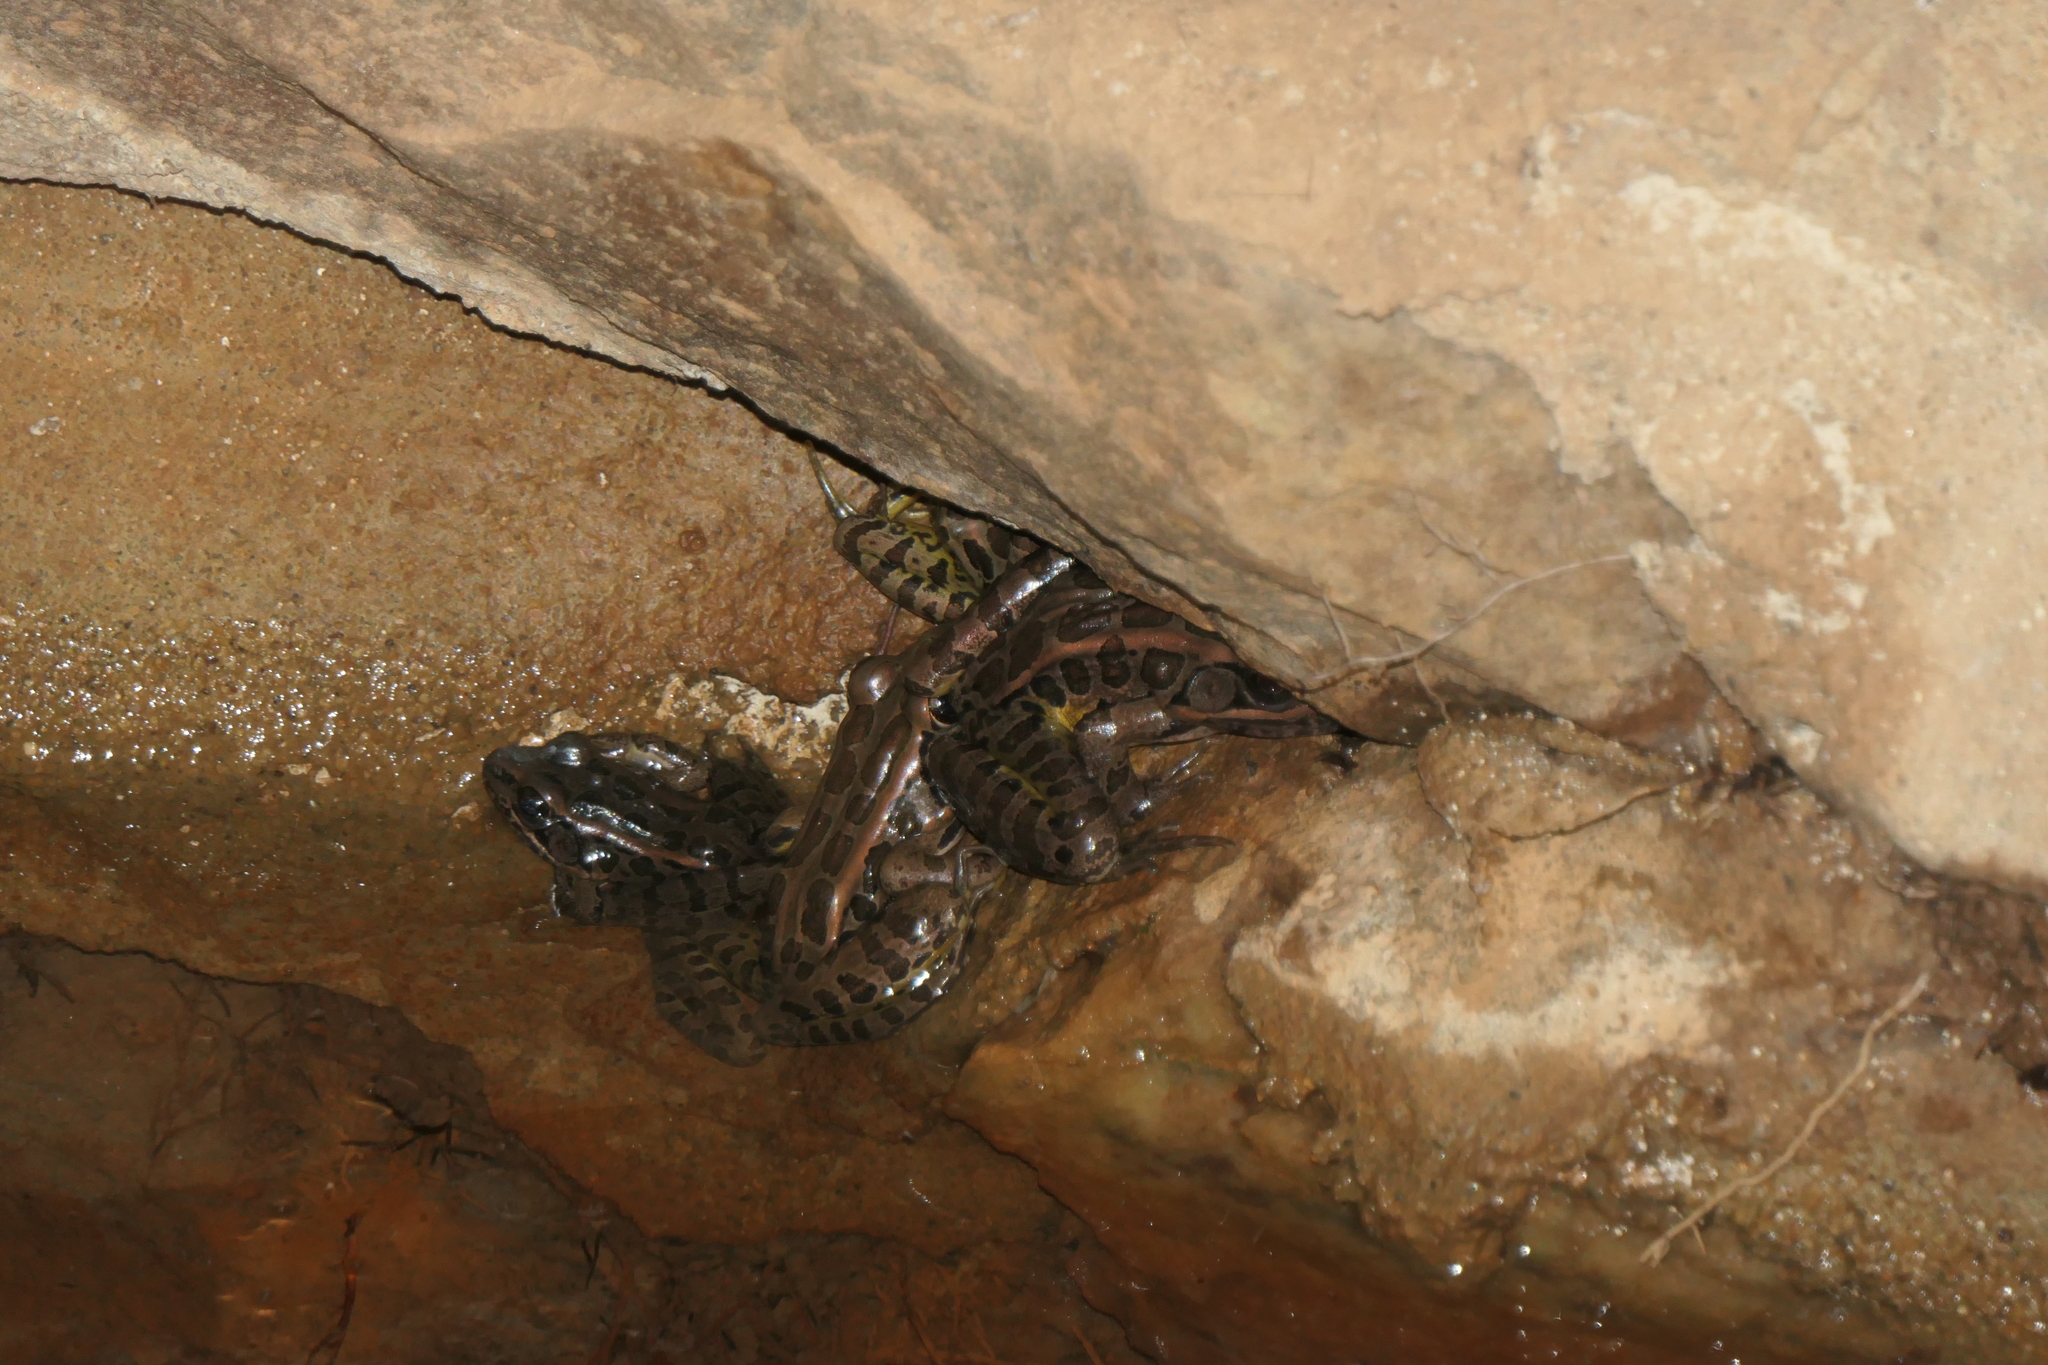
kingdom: Animalia
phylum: Chordata
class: Amphibia
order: Anura
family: Ranidae
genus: Lithobates
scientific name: Lithobates palustris
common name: Pickerel frog
